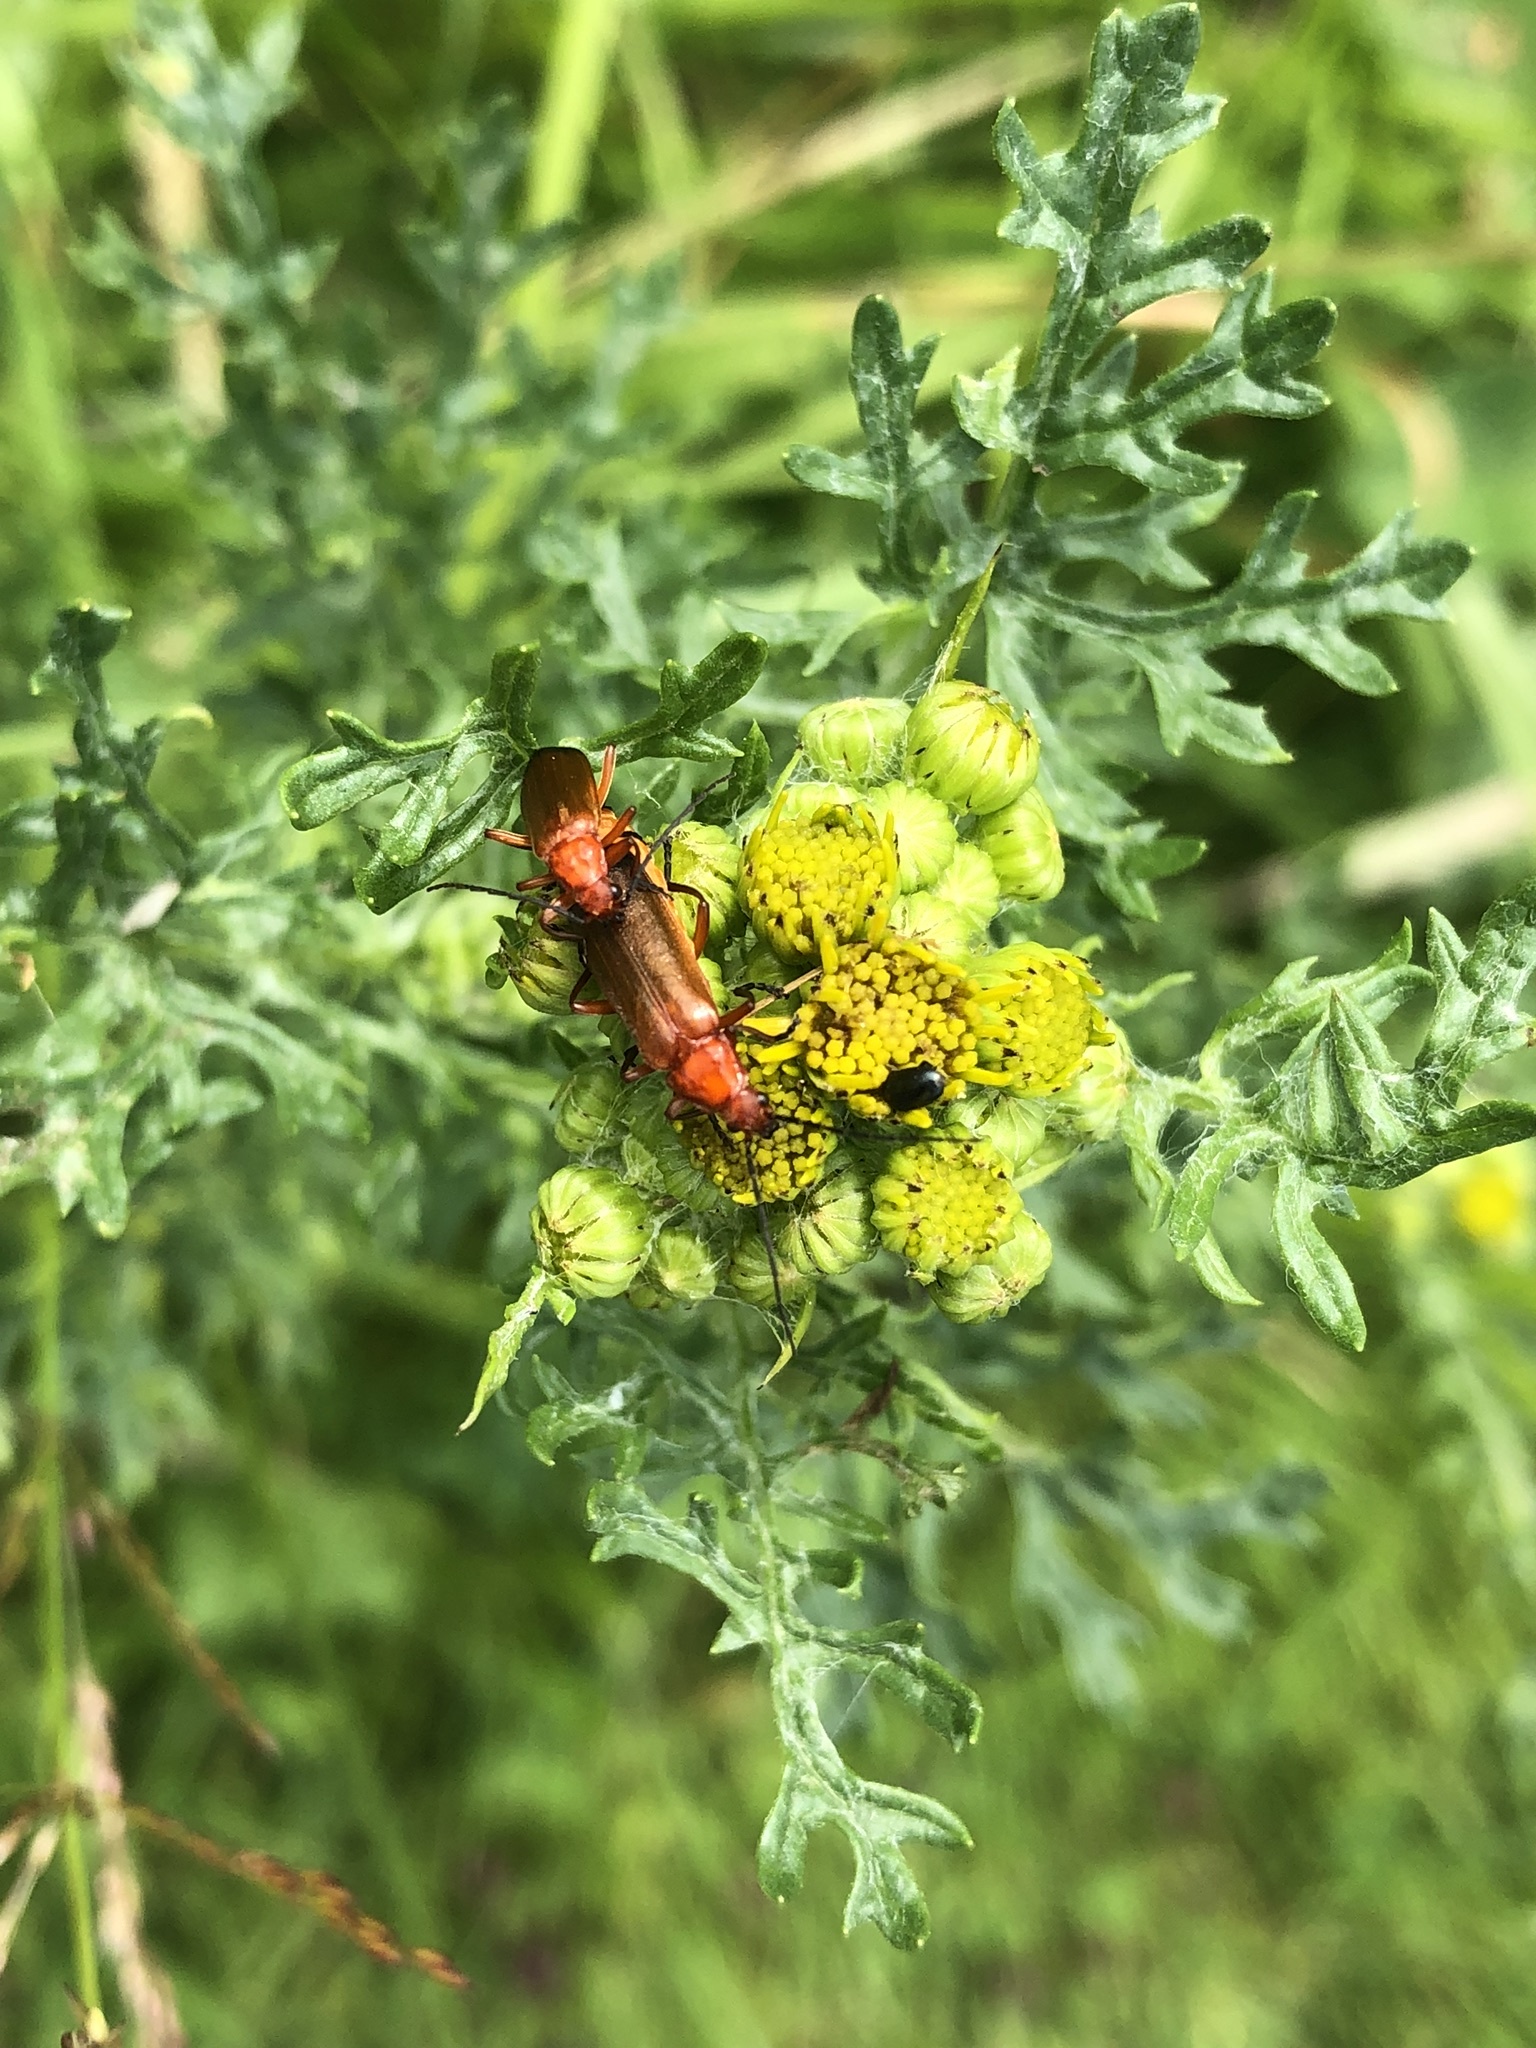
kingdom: Animalia
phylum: Arthropoda
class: Insecta
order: Coleoptera
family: Cantharidae
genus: Rhagonycha
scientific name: Rhagonycha fulva
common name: Common red soldier beetle
